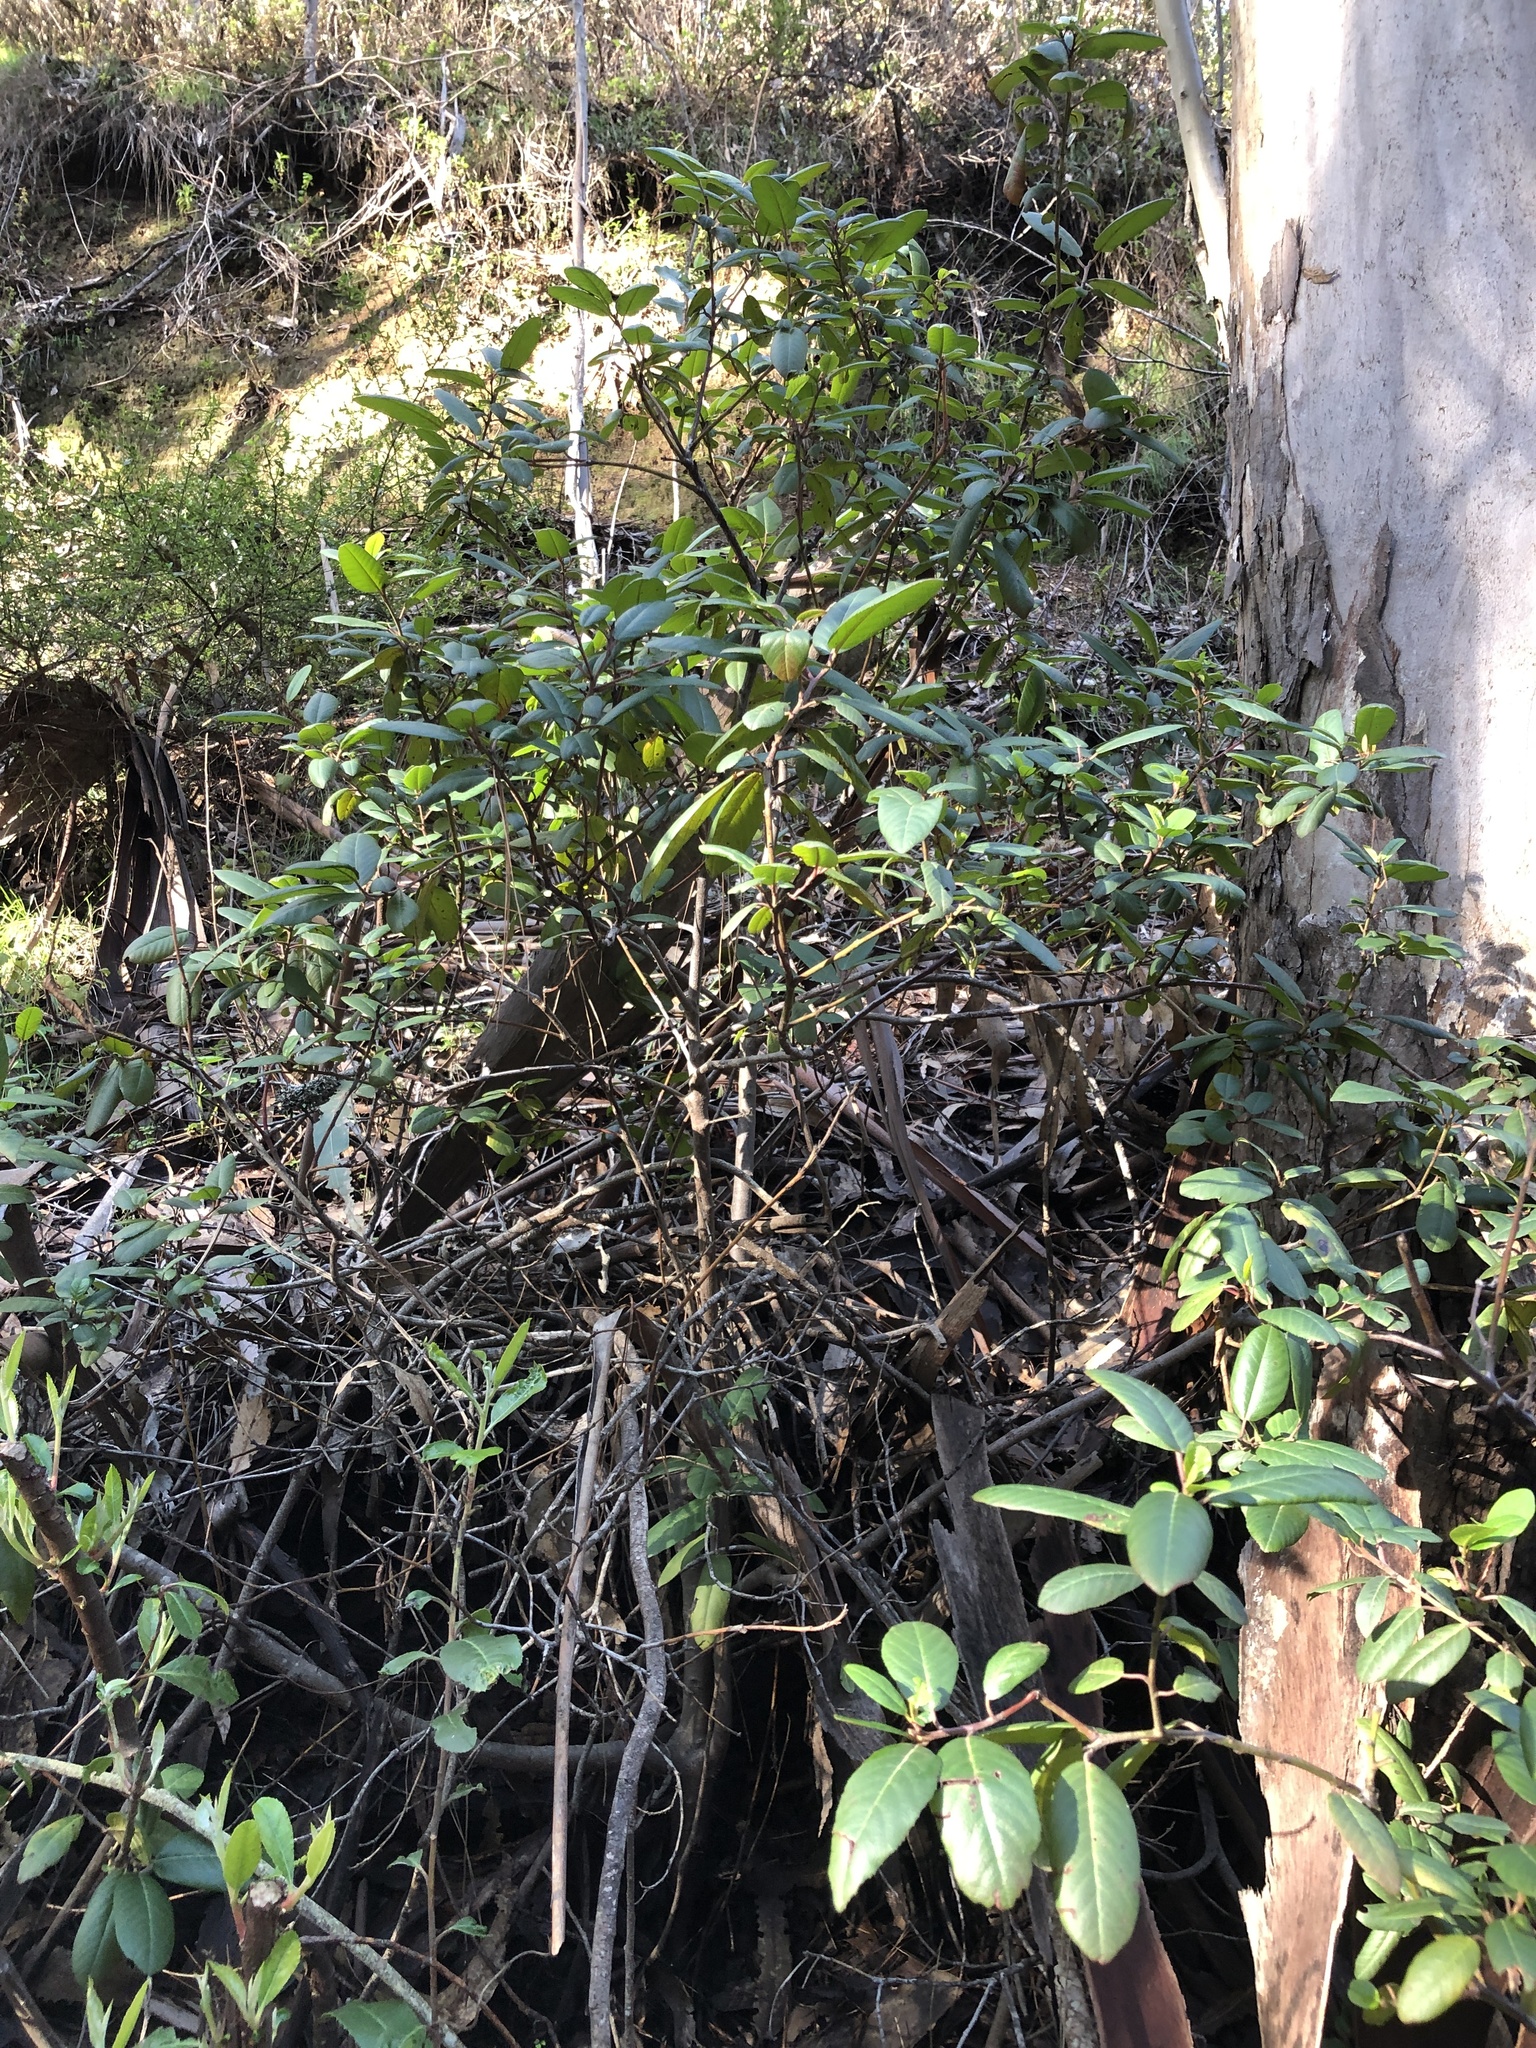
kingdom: Plantae
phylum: Tracheophyta
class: Magnoliopsida
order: Rosales
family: Rhamnaceae
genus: Frangula
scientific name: Frangula californica
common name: California buckthorn
